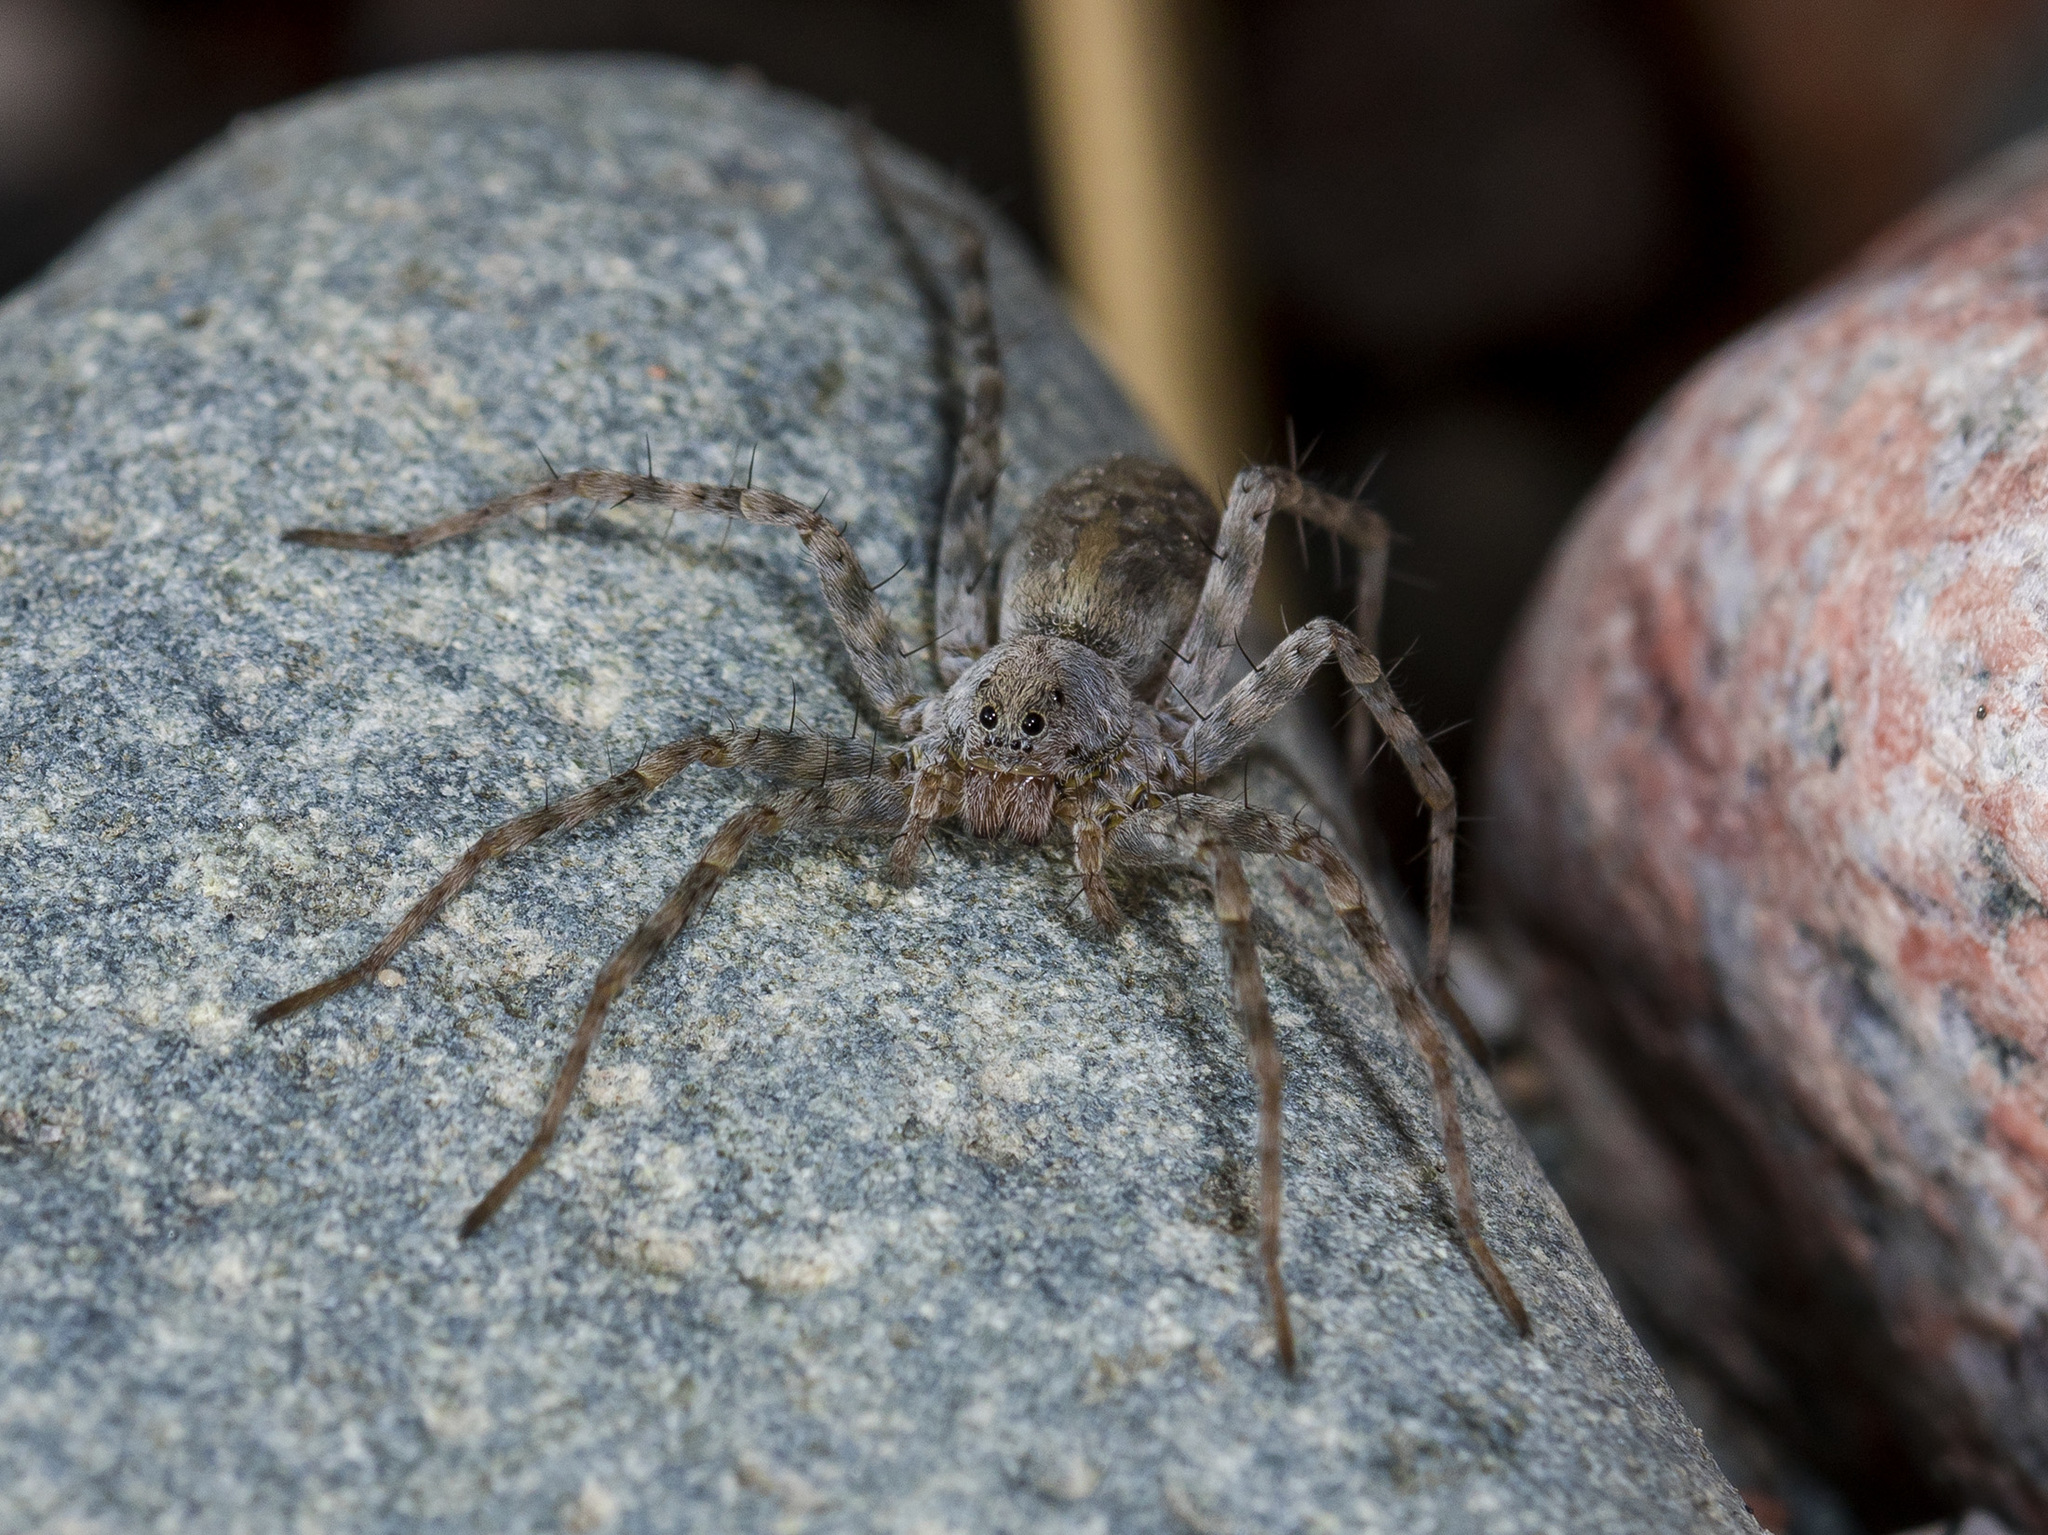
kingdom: Animalia
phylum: Arthropoda
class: Arachnida
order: Araneae
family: Lycosidae
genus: Pardosa
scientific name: Pardosa falcata
